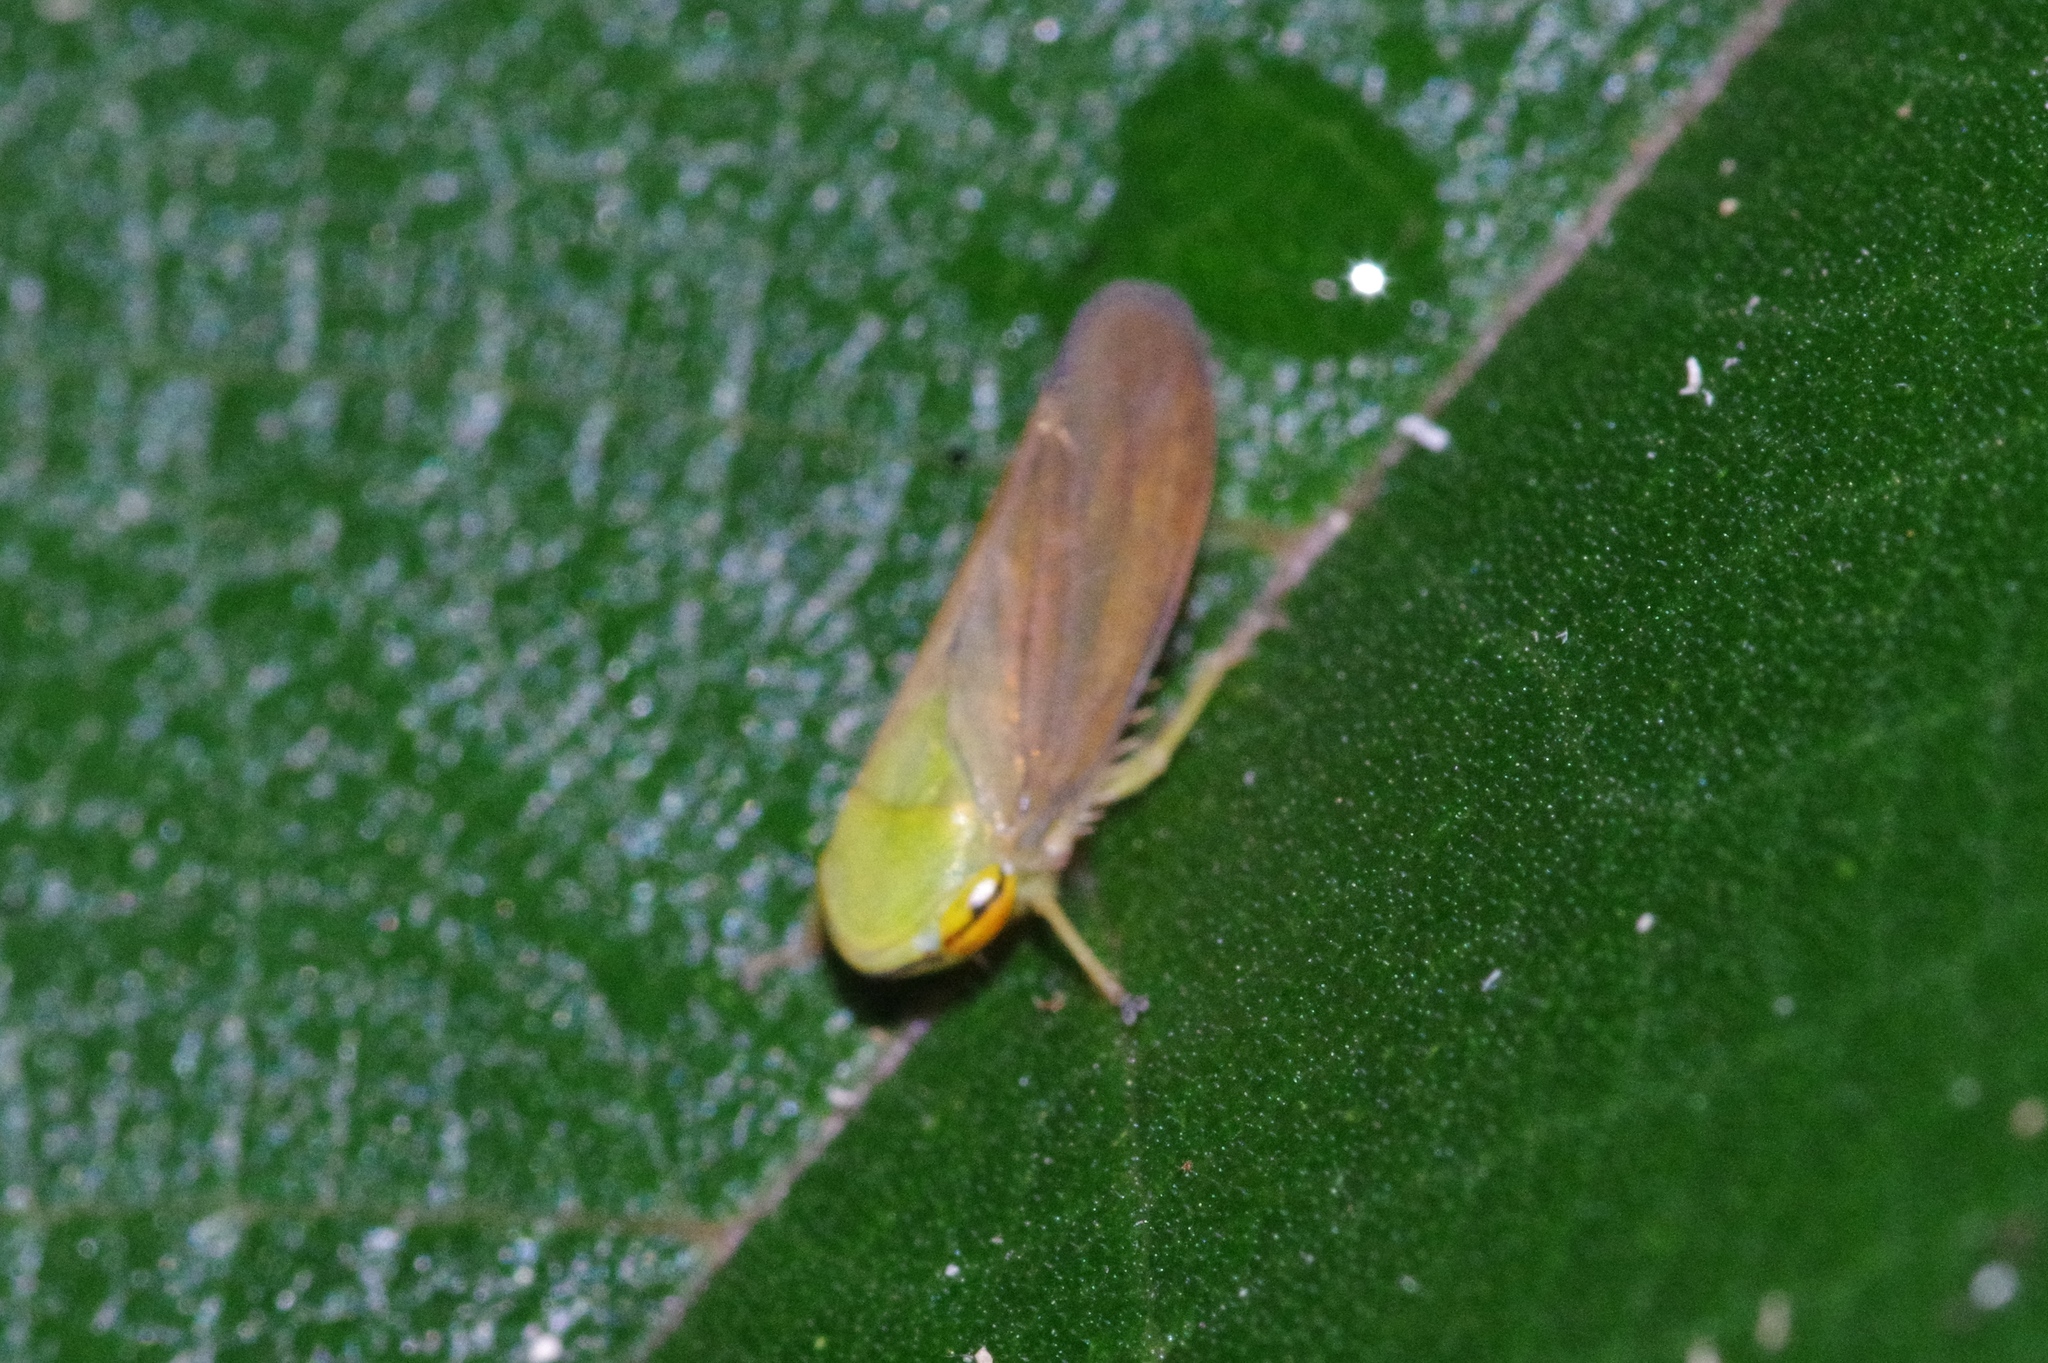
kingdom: Animalia
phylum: Arthropoda
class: Insecta
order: Hemiptera
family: Cicadellidae
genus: Tartessus
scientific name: Tartessus ferrugineus
